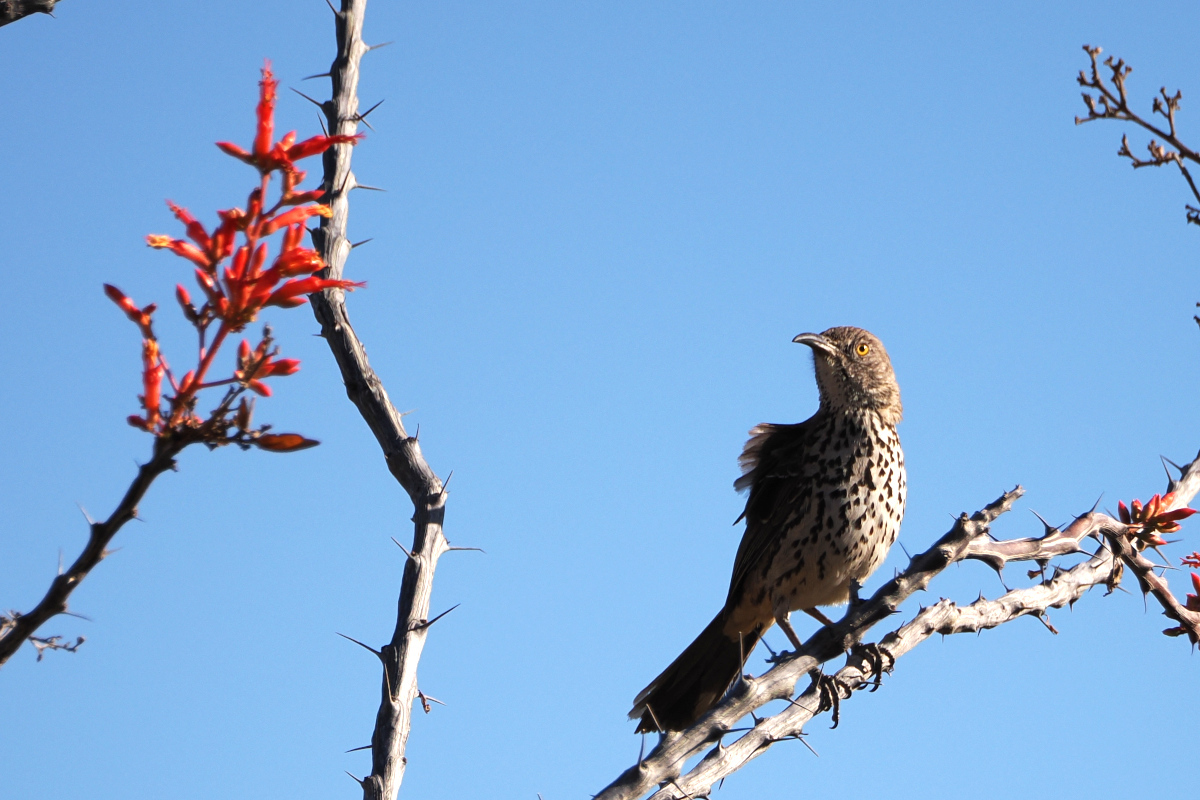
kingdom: Animalia
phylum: Chordata
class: Aves
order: Passeriformes
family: Mimidae
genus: Toxostoma
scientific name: Toxostoma cinereum
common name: Gray thrasher
